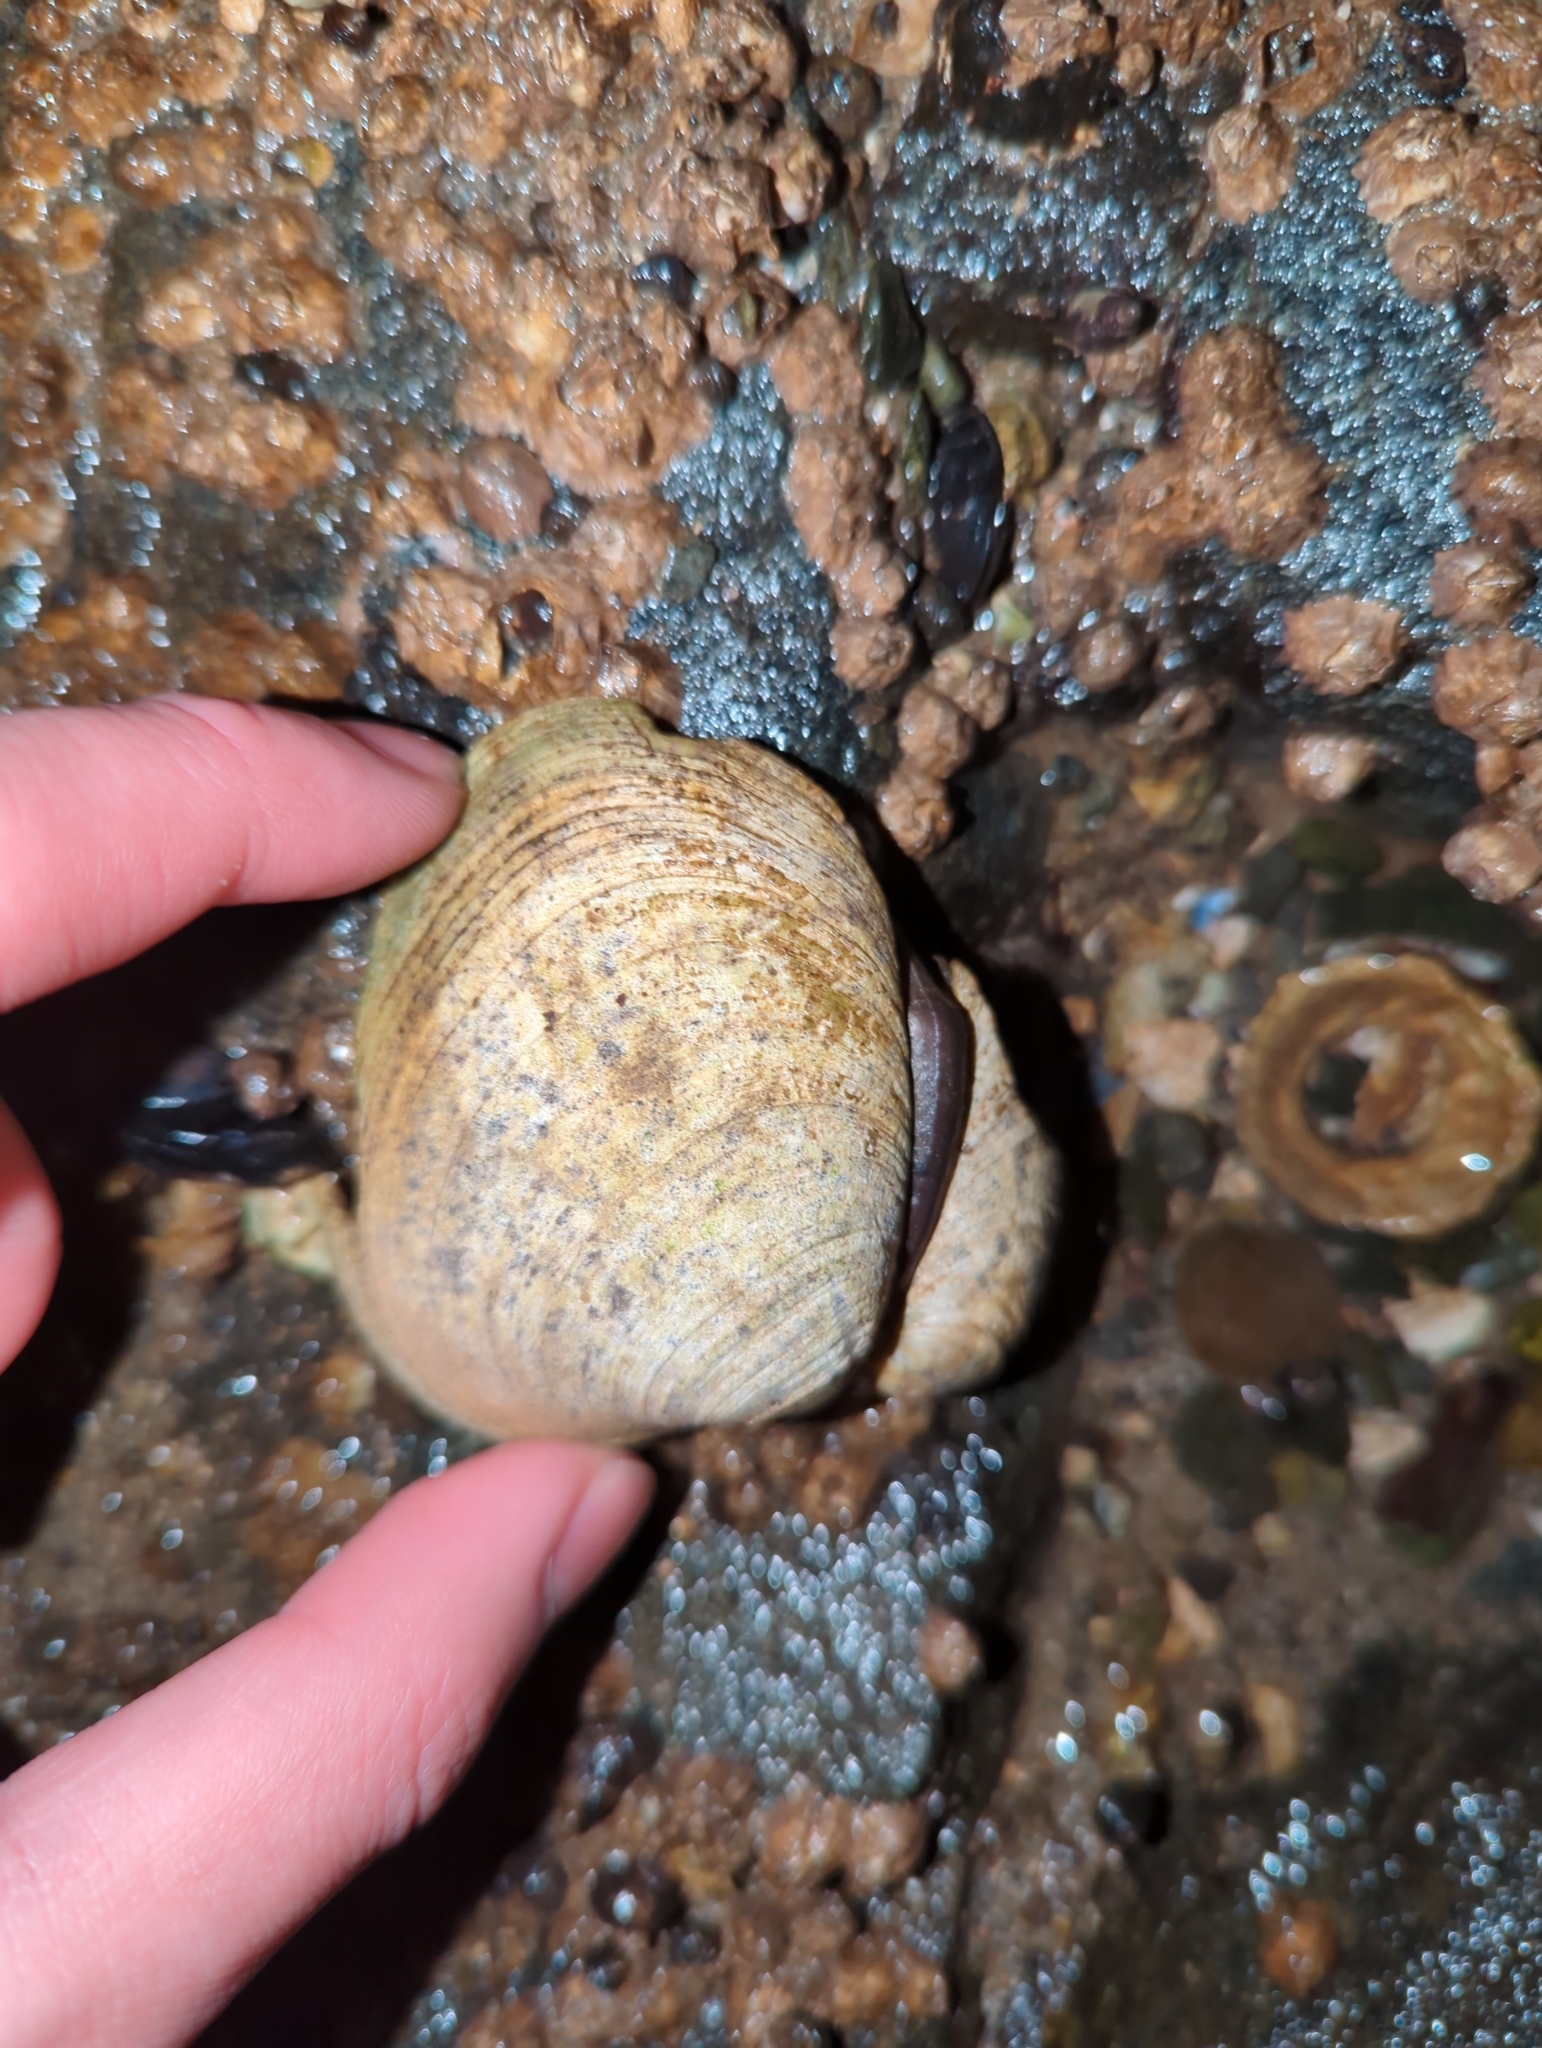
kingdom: Animalia
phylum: Mollusca
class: Bivalvia
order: Venerida
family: Veneridae
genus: Saxidomus
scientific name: Saxidomus gigantea
